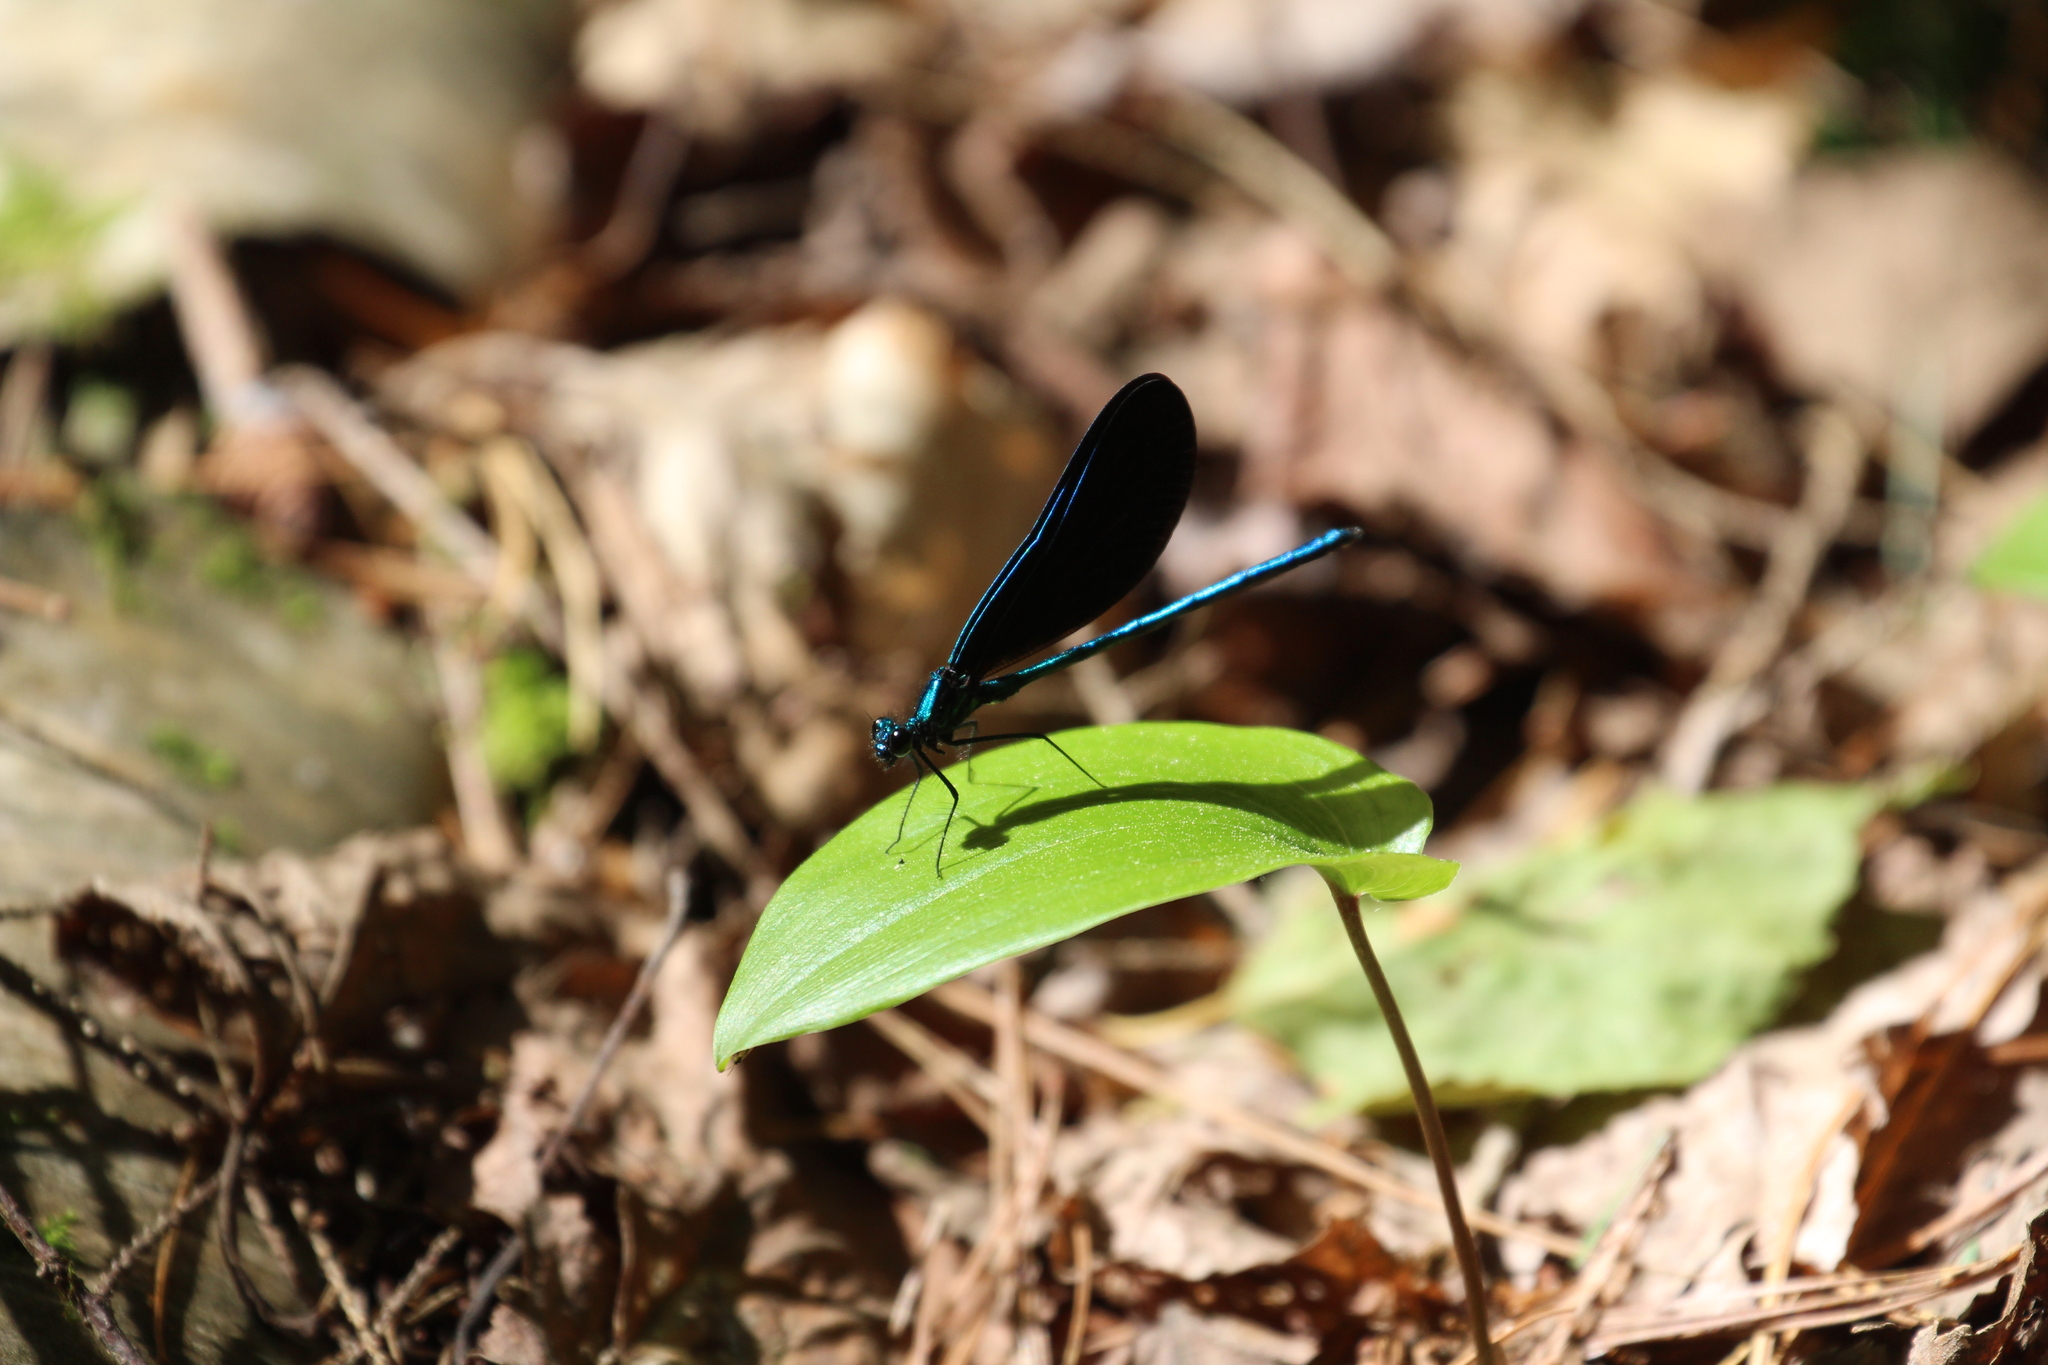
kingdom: Animalia
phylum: Arthropoda
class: Insecta
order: Odonata
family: Calopterygidae
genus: Calopteryx
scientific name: Calopteryx maculata
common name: Ebony jewelwing
